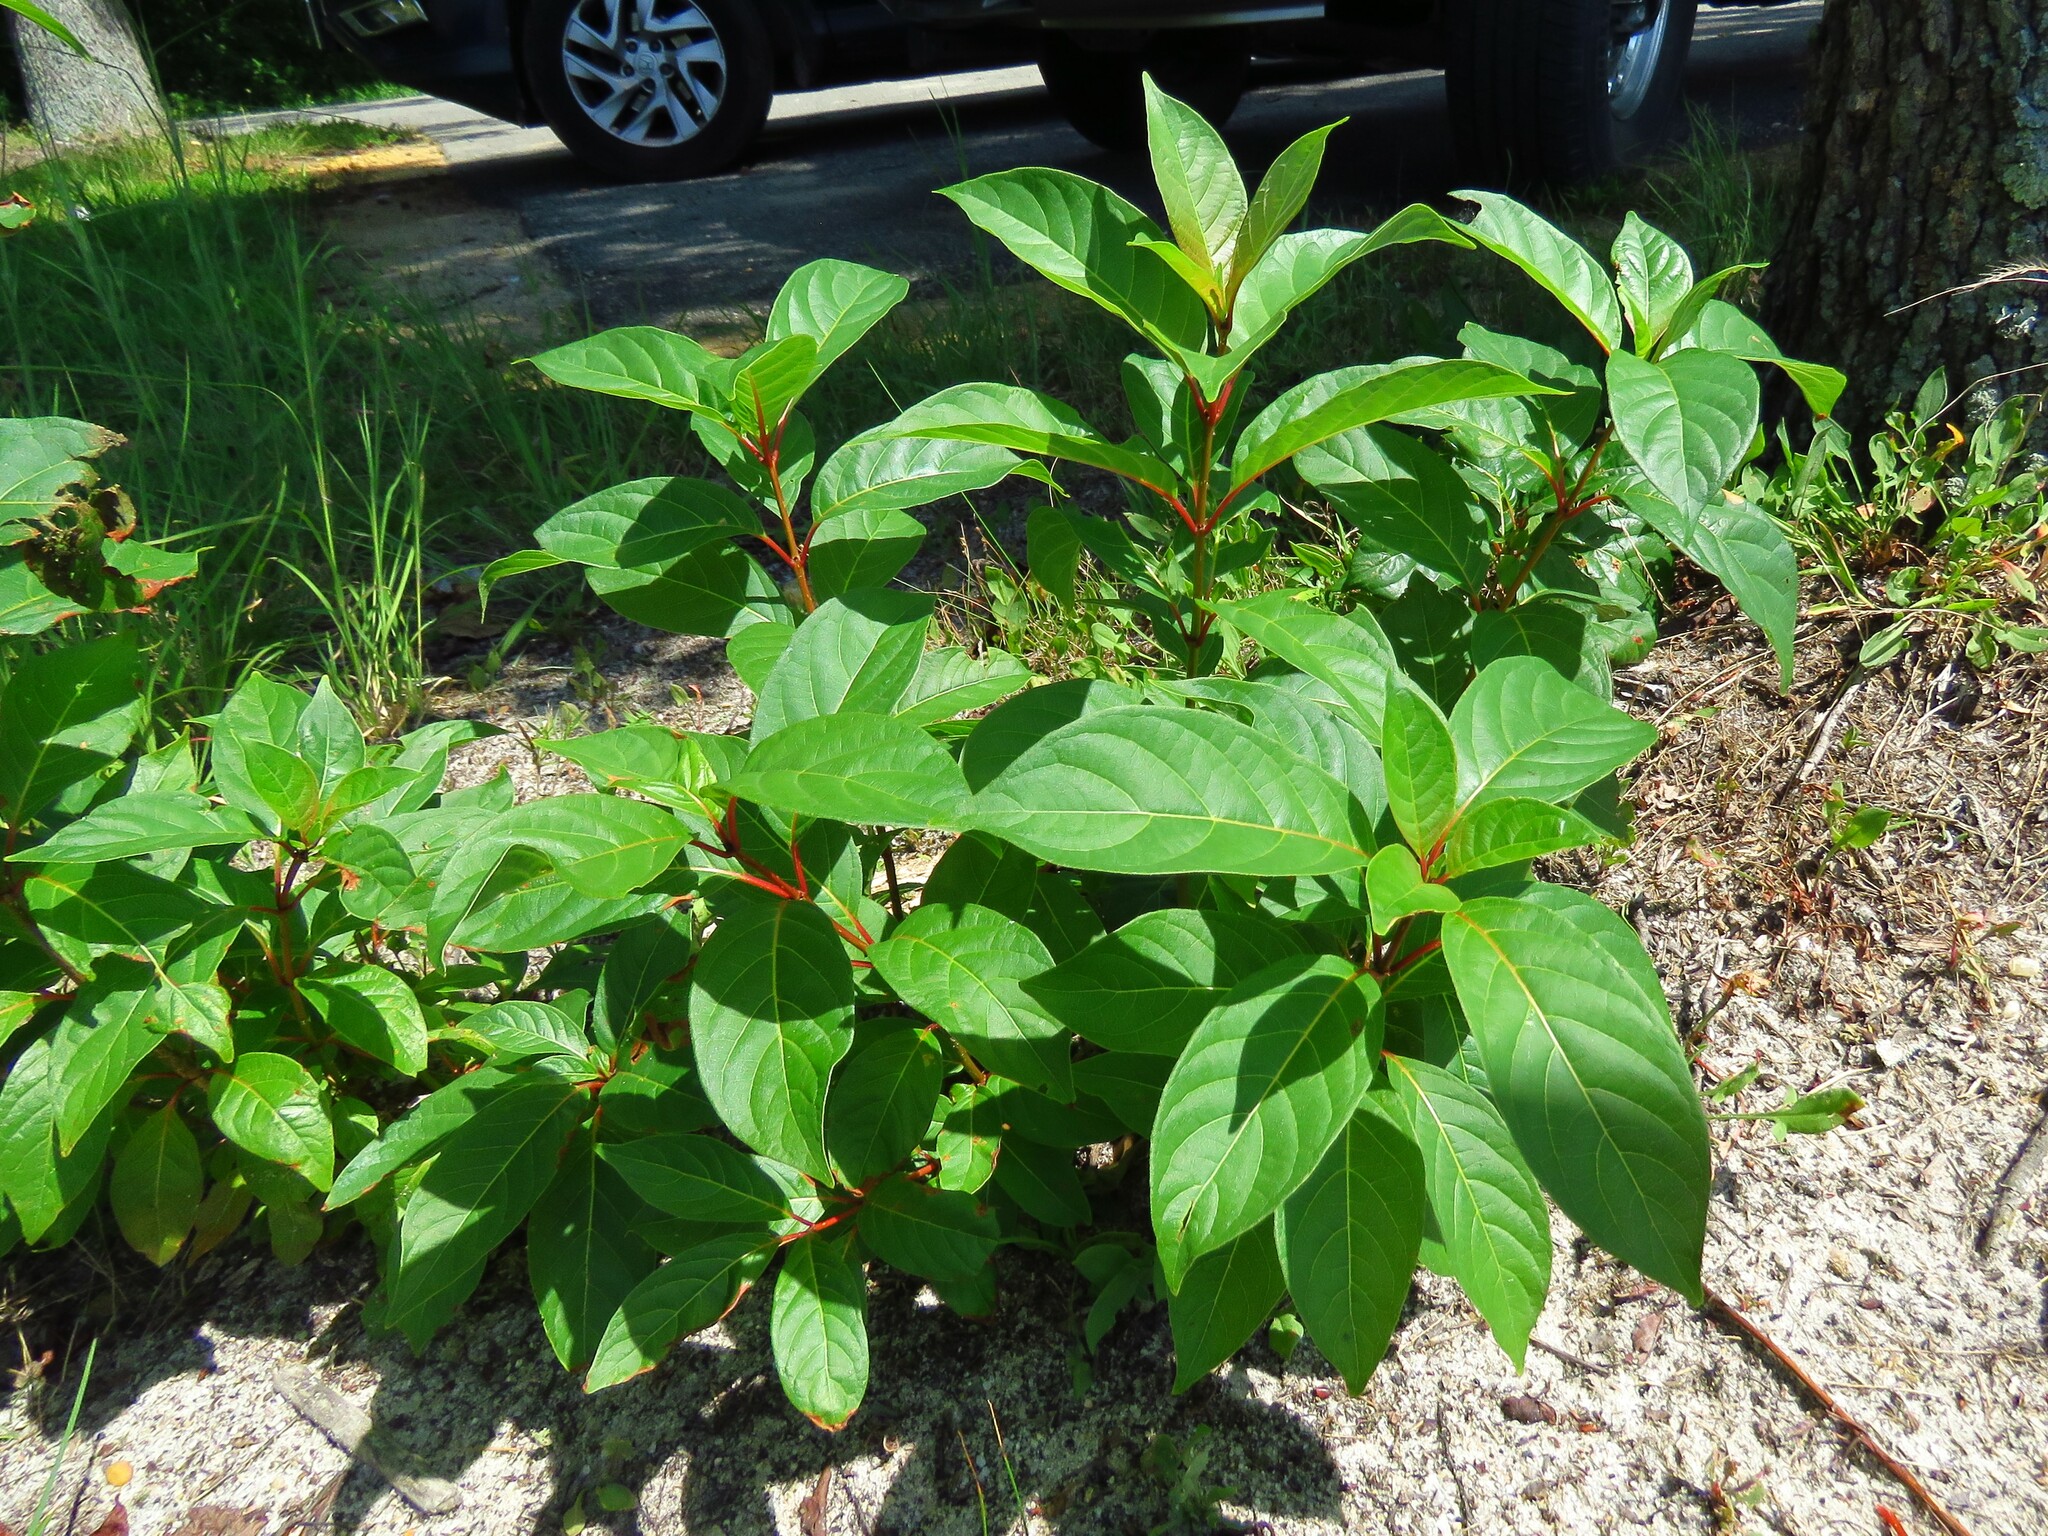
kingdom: Plantae
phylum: Tracheophyta
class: Magnoliopsida
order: Gentianales
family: Rubiaceae
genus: Cephalanthus
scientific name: Cephalanthus occidentalis
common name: Button-willow
